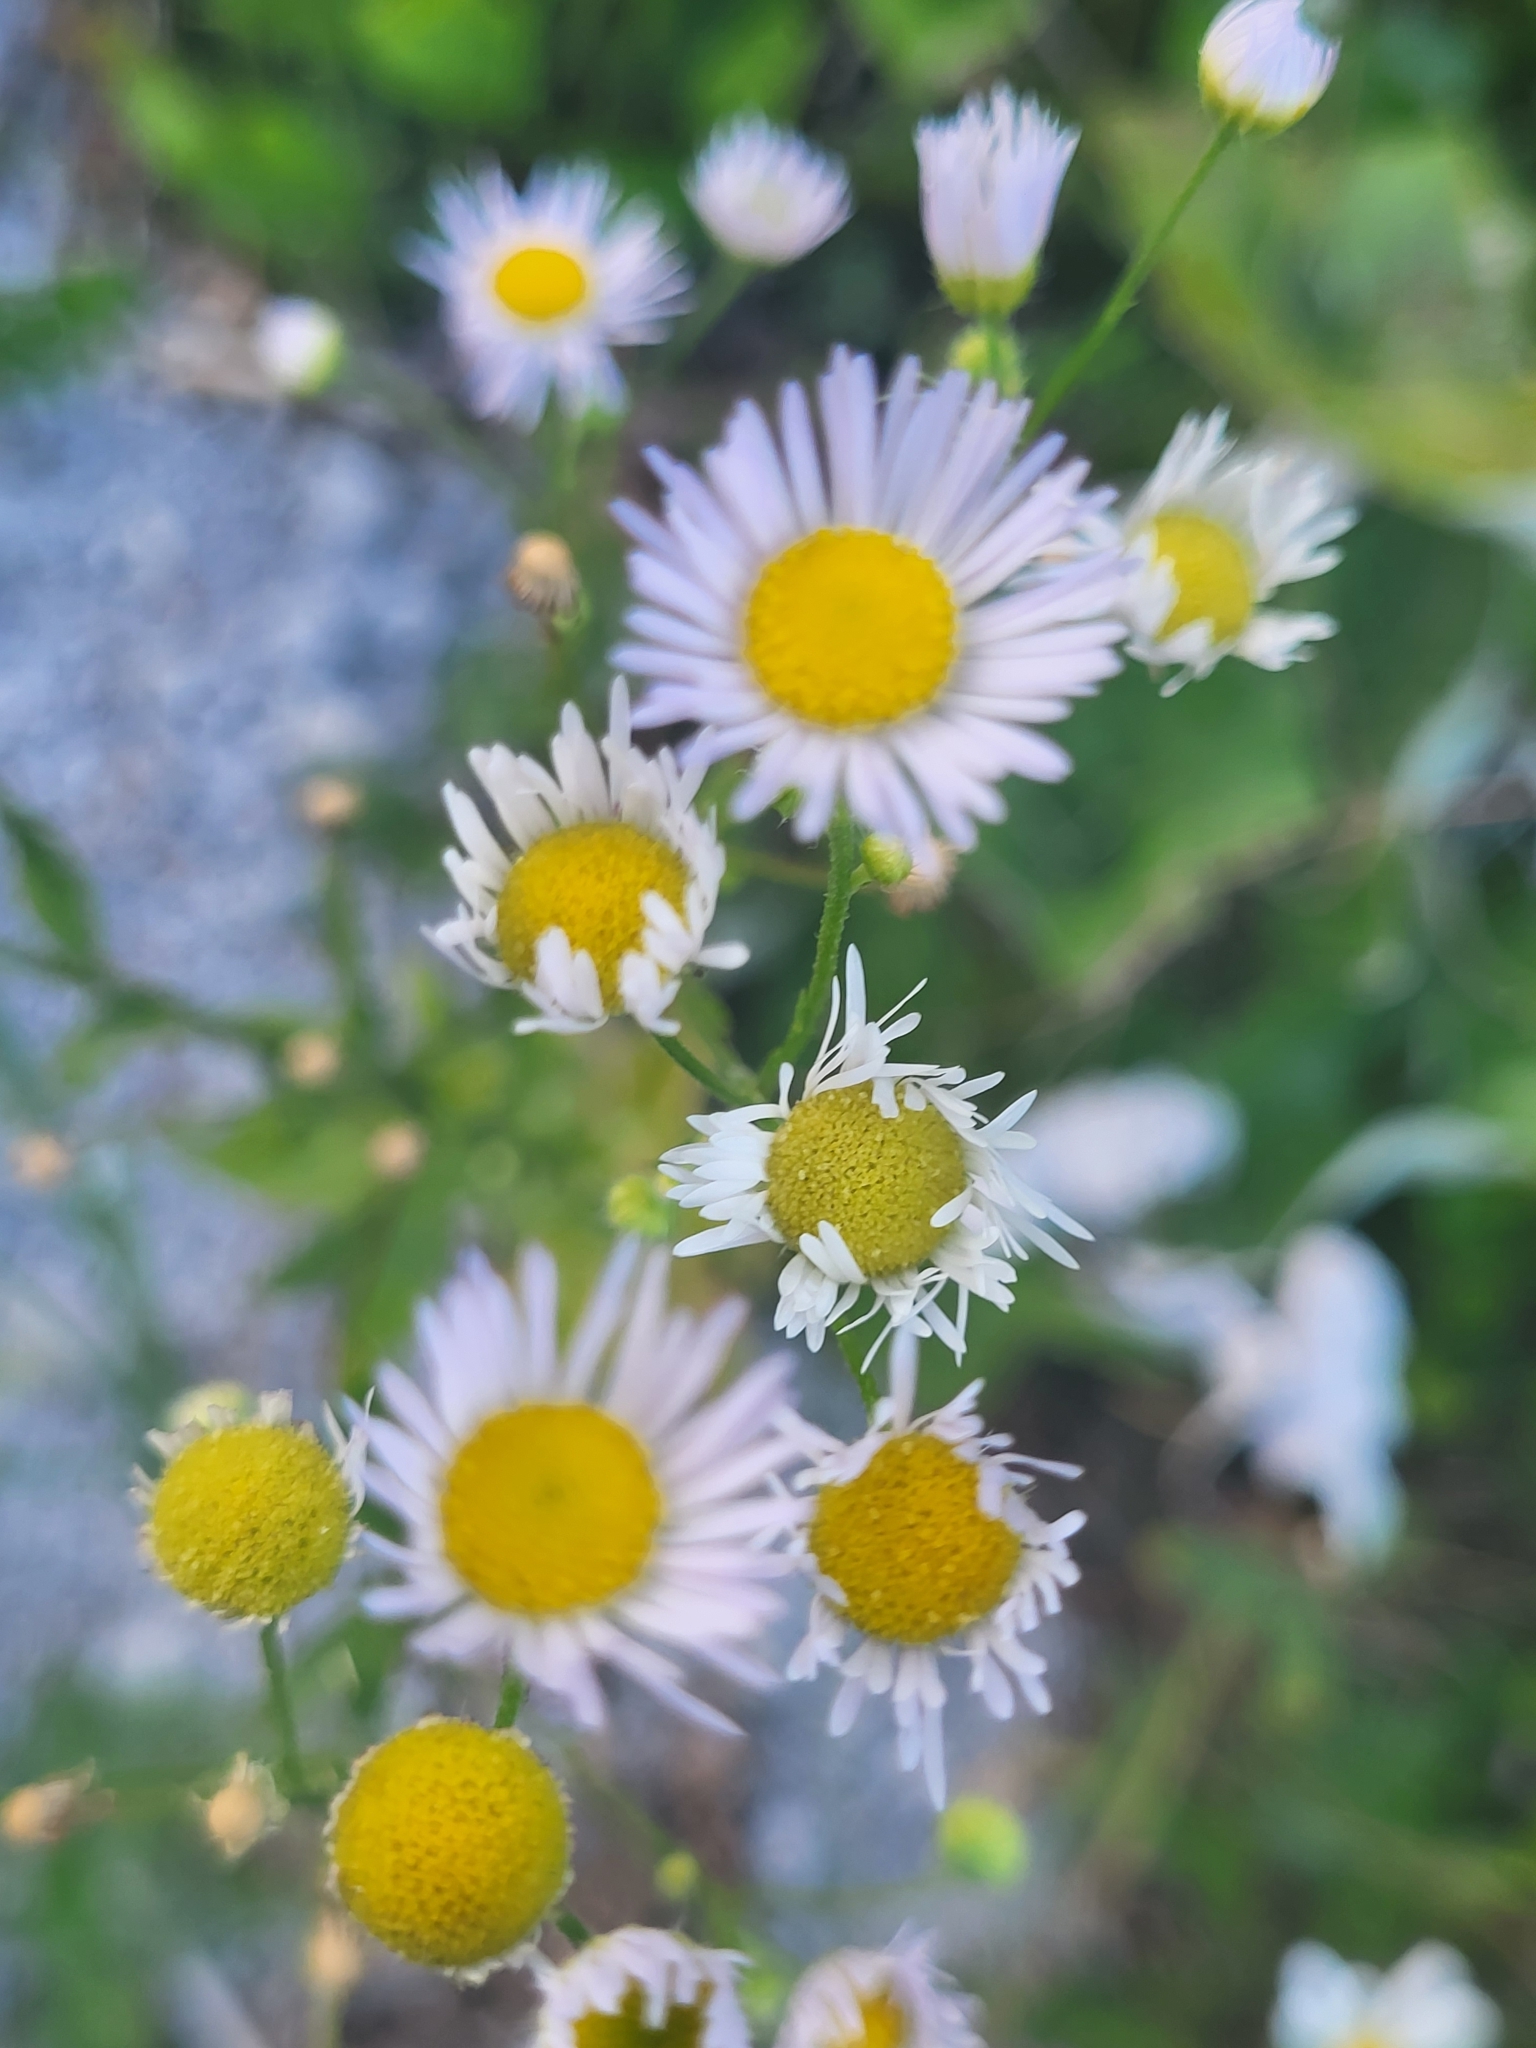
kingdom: Plantae
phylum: Tracheophyta
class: Magnoliopsida
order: Asterales
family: Asteraceae
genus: Erigeron
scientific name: Erigeron annuus
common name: Tall fleabane
